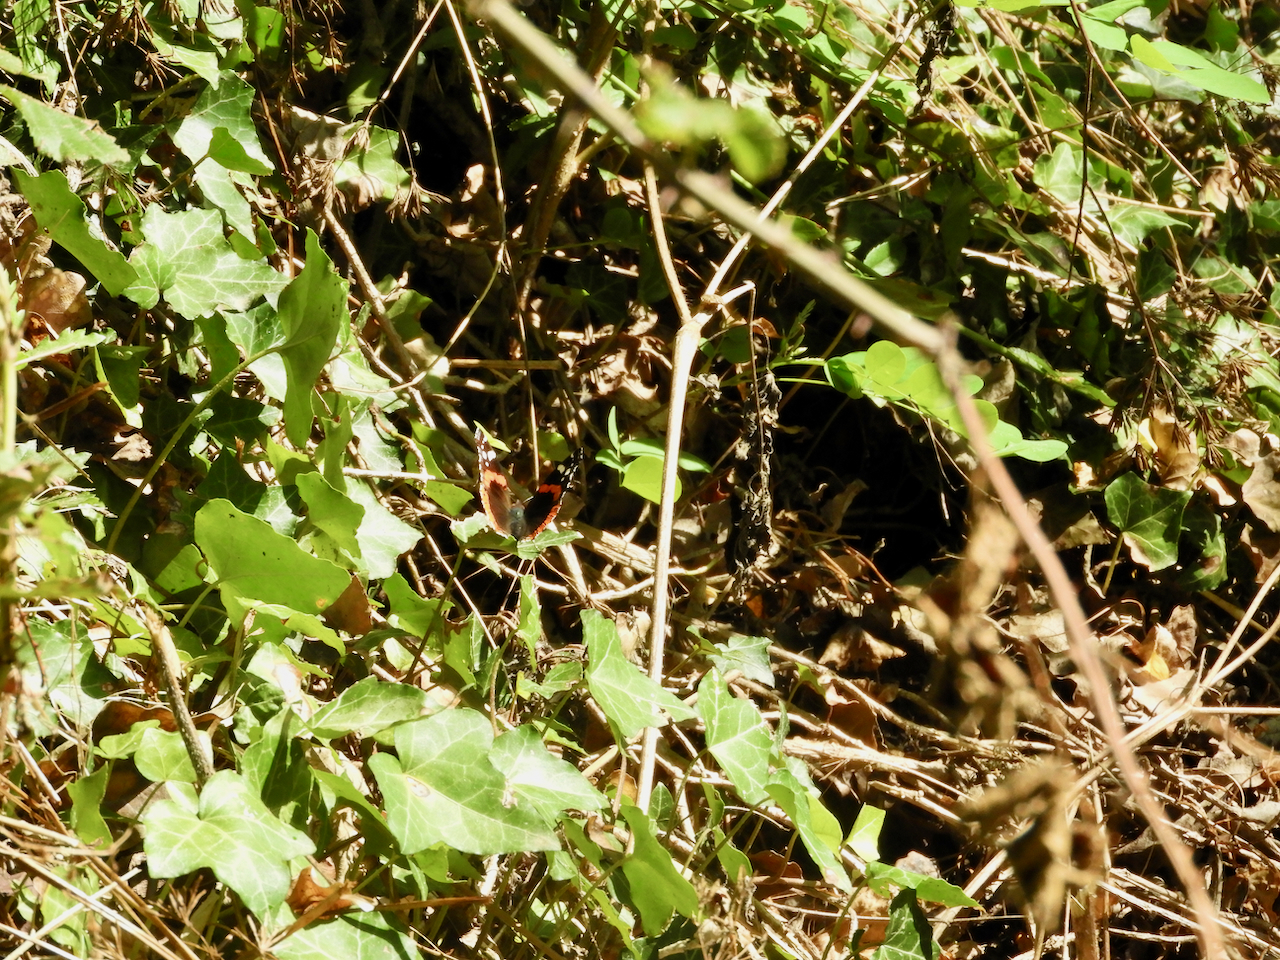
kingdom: Animalia
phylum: Arthropoda
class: Insecta
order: Lepidoptera
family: Nymphalidae
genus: Vanessa
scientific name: Vanessa atalanta
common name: Red admiral
